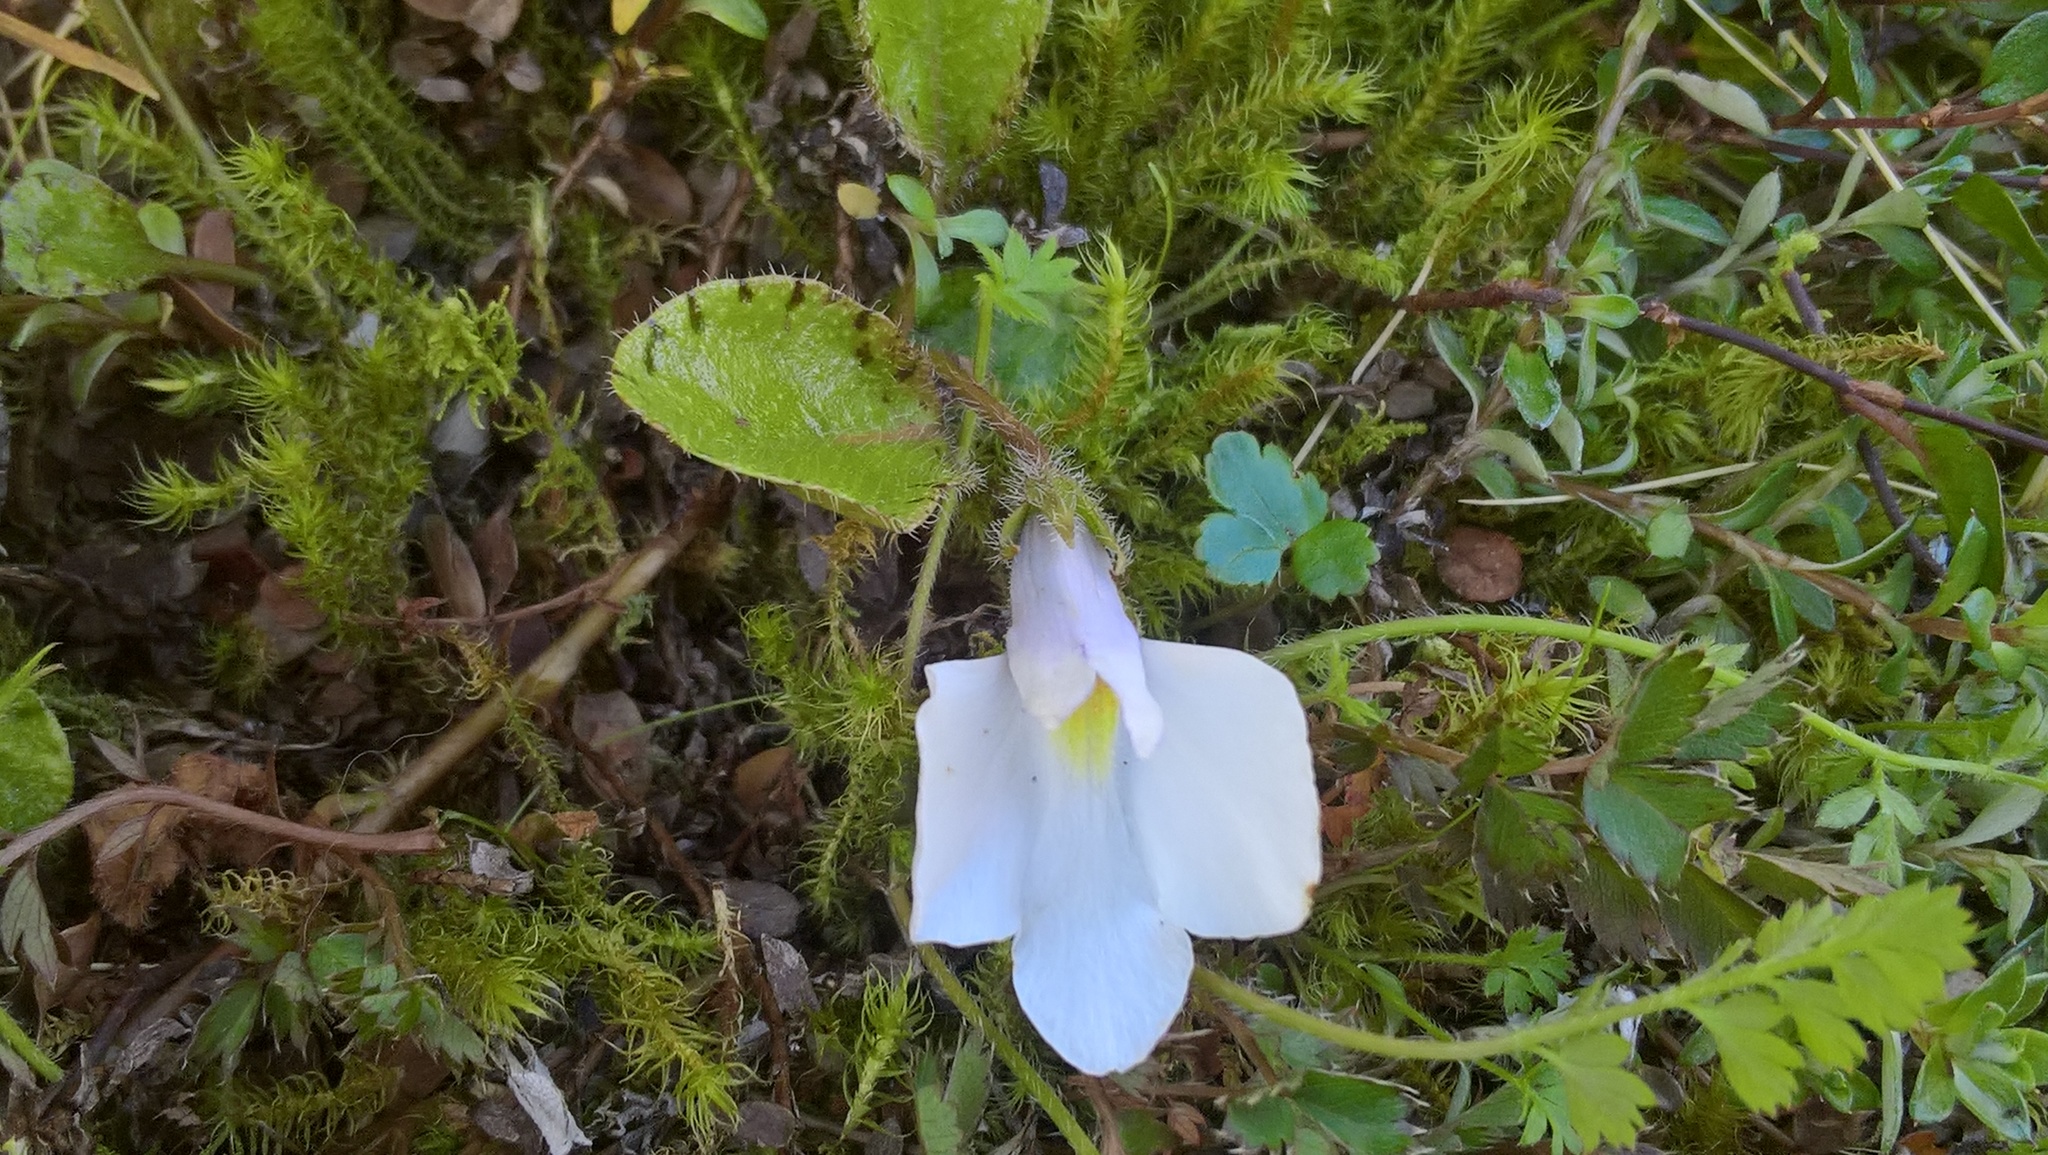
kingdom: Plantae
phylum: Tracheophyta
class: Magnoliopsida
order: Lamiales
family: Mazaceae
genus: Mazus
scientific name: Mazus radicans
